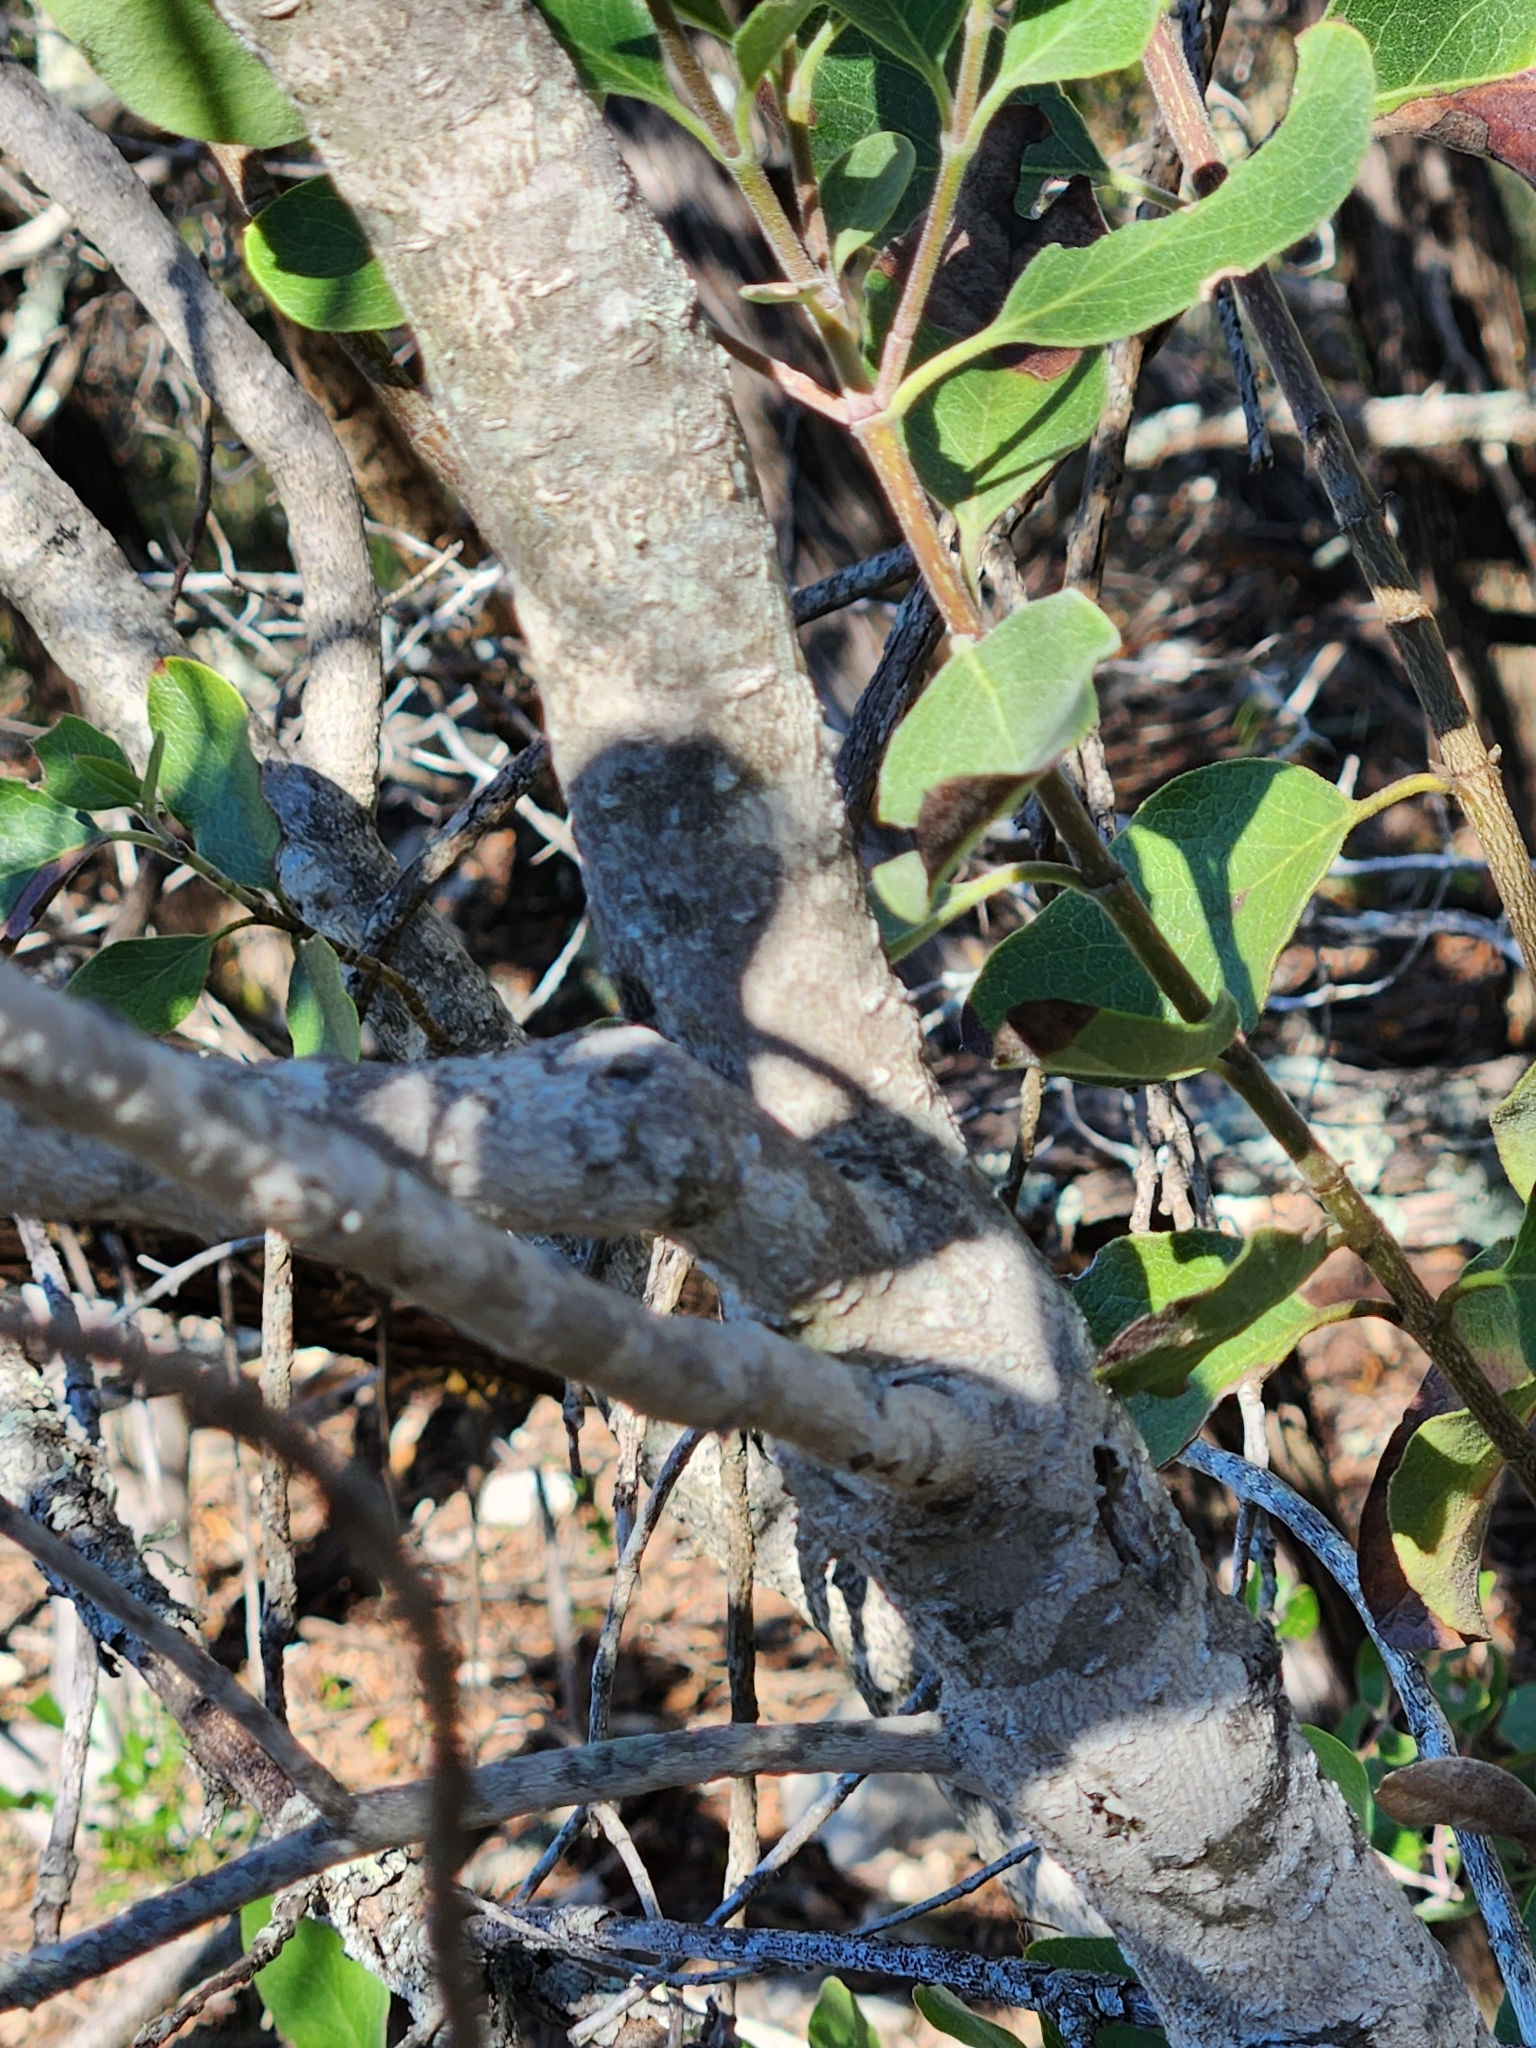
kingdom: Plantae
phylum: Tracheophyta
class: Magnoliopsida
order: Garryales
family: Garryaceae
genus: Garrya
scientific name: Garrya lindheimeri
